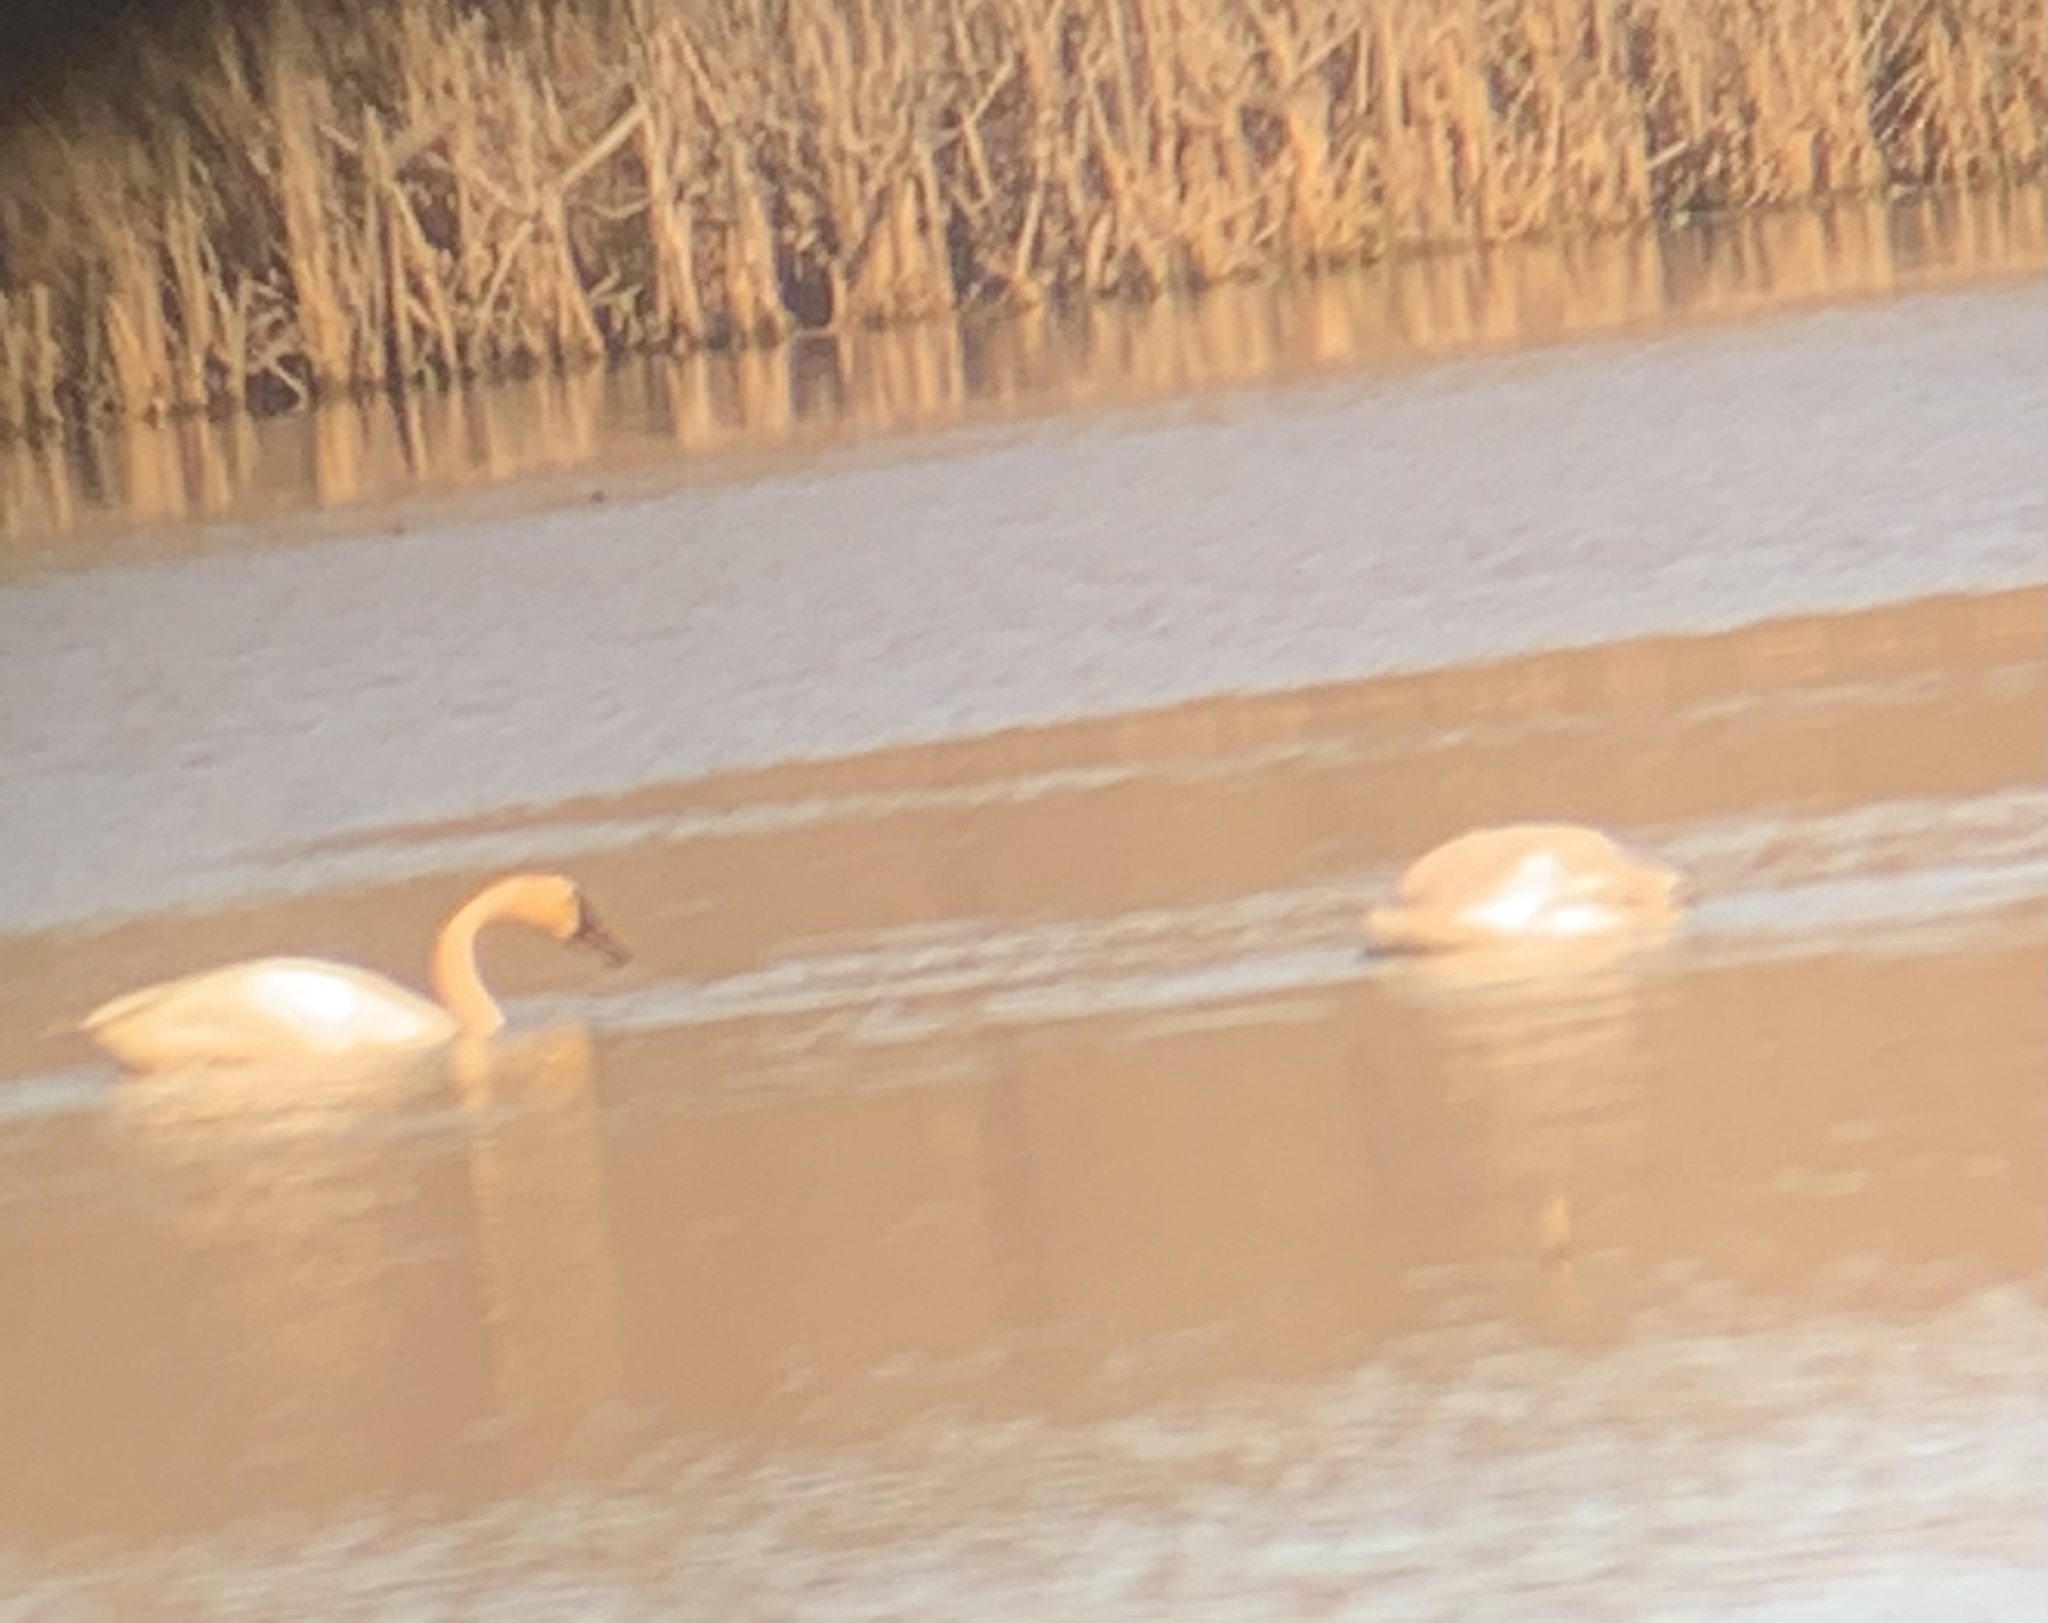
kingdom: Animalia
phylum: Chordata
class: Aves
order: Anseriformes
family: Anatidae
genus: Cygnus
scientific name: Cygnus columbianus
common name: Tundra swan
